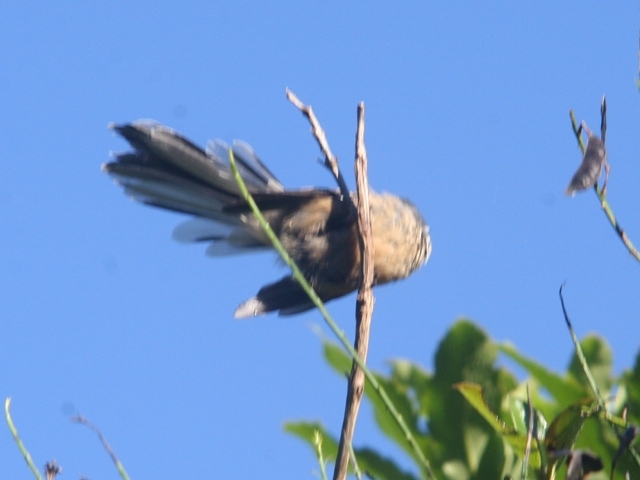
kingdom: Animalia
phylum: Chordata
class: Aves
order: Passeriformes
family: Rhipiduridae
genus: Rhipidura
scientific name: Rhipidura fuliginosa
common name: New zealand fantail
